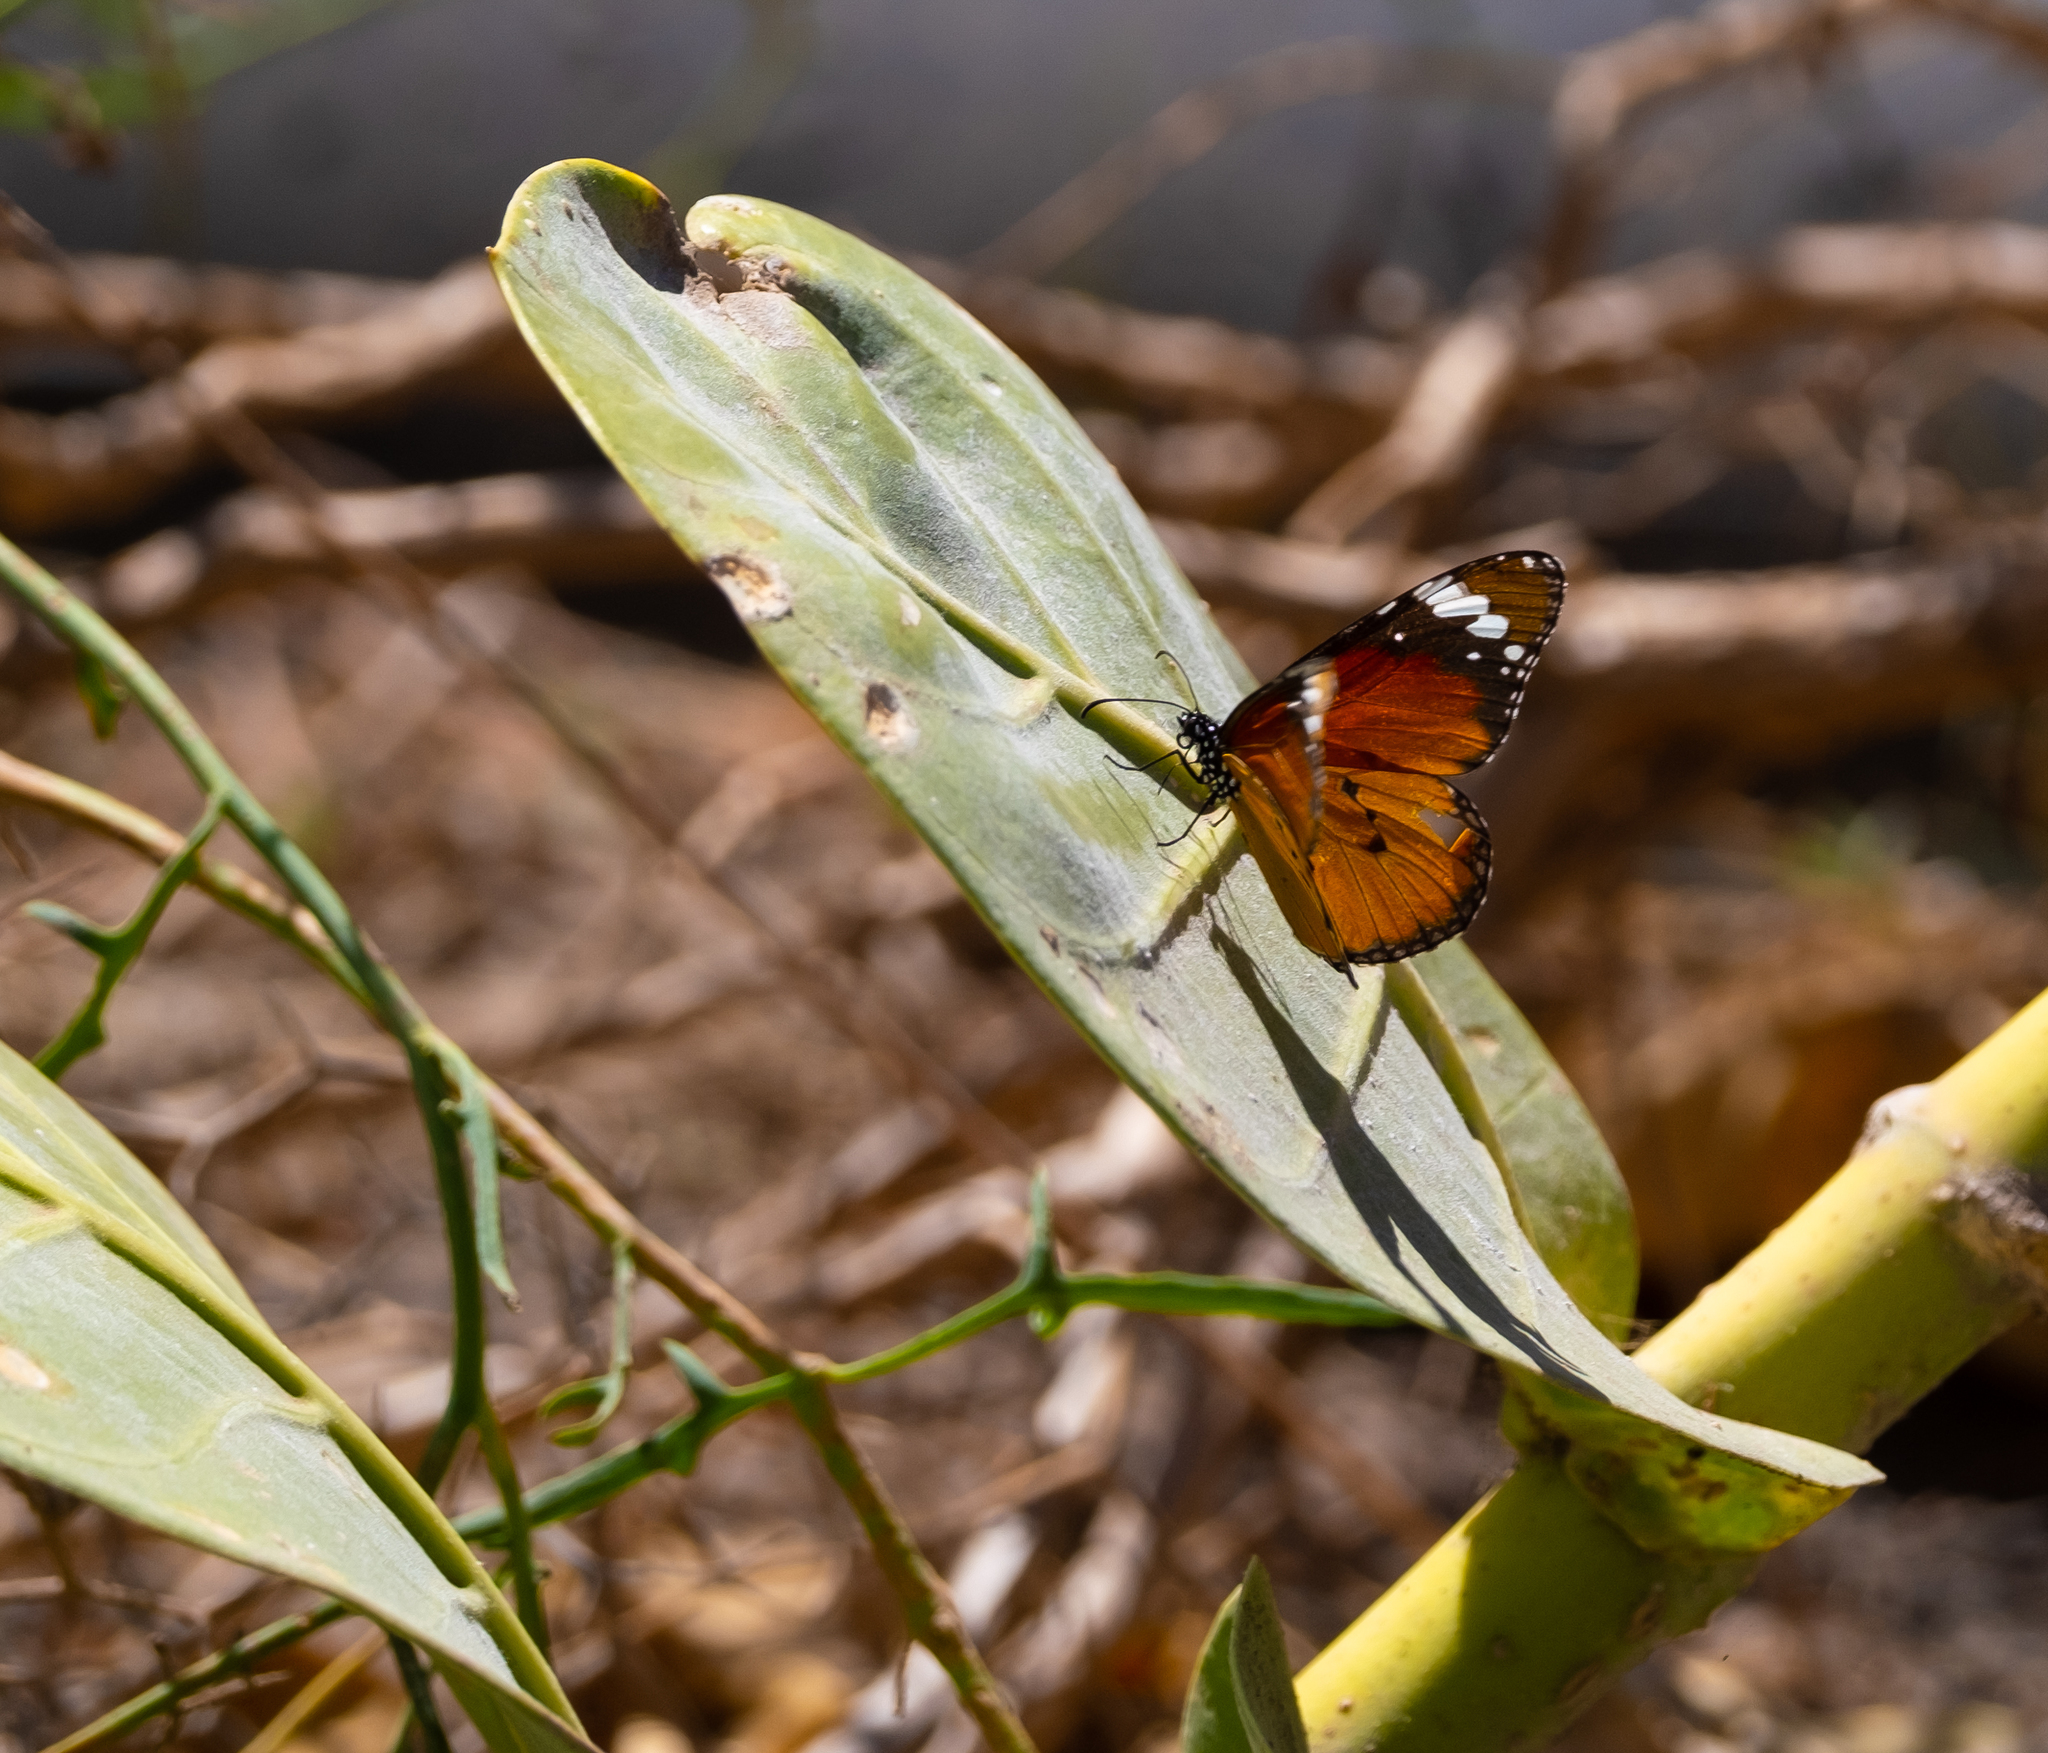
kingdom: Animalia
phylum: Arthropoda
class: Insecta
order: Lepidoptera
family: Nymphalidae
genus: Danaus
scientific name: Danaus chrysippus
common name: Plain tiger
